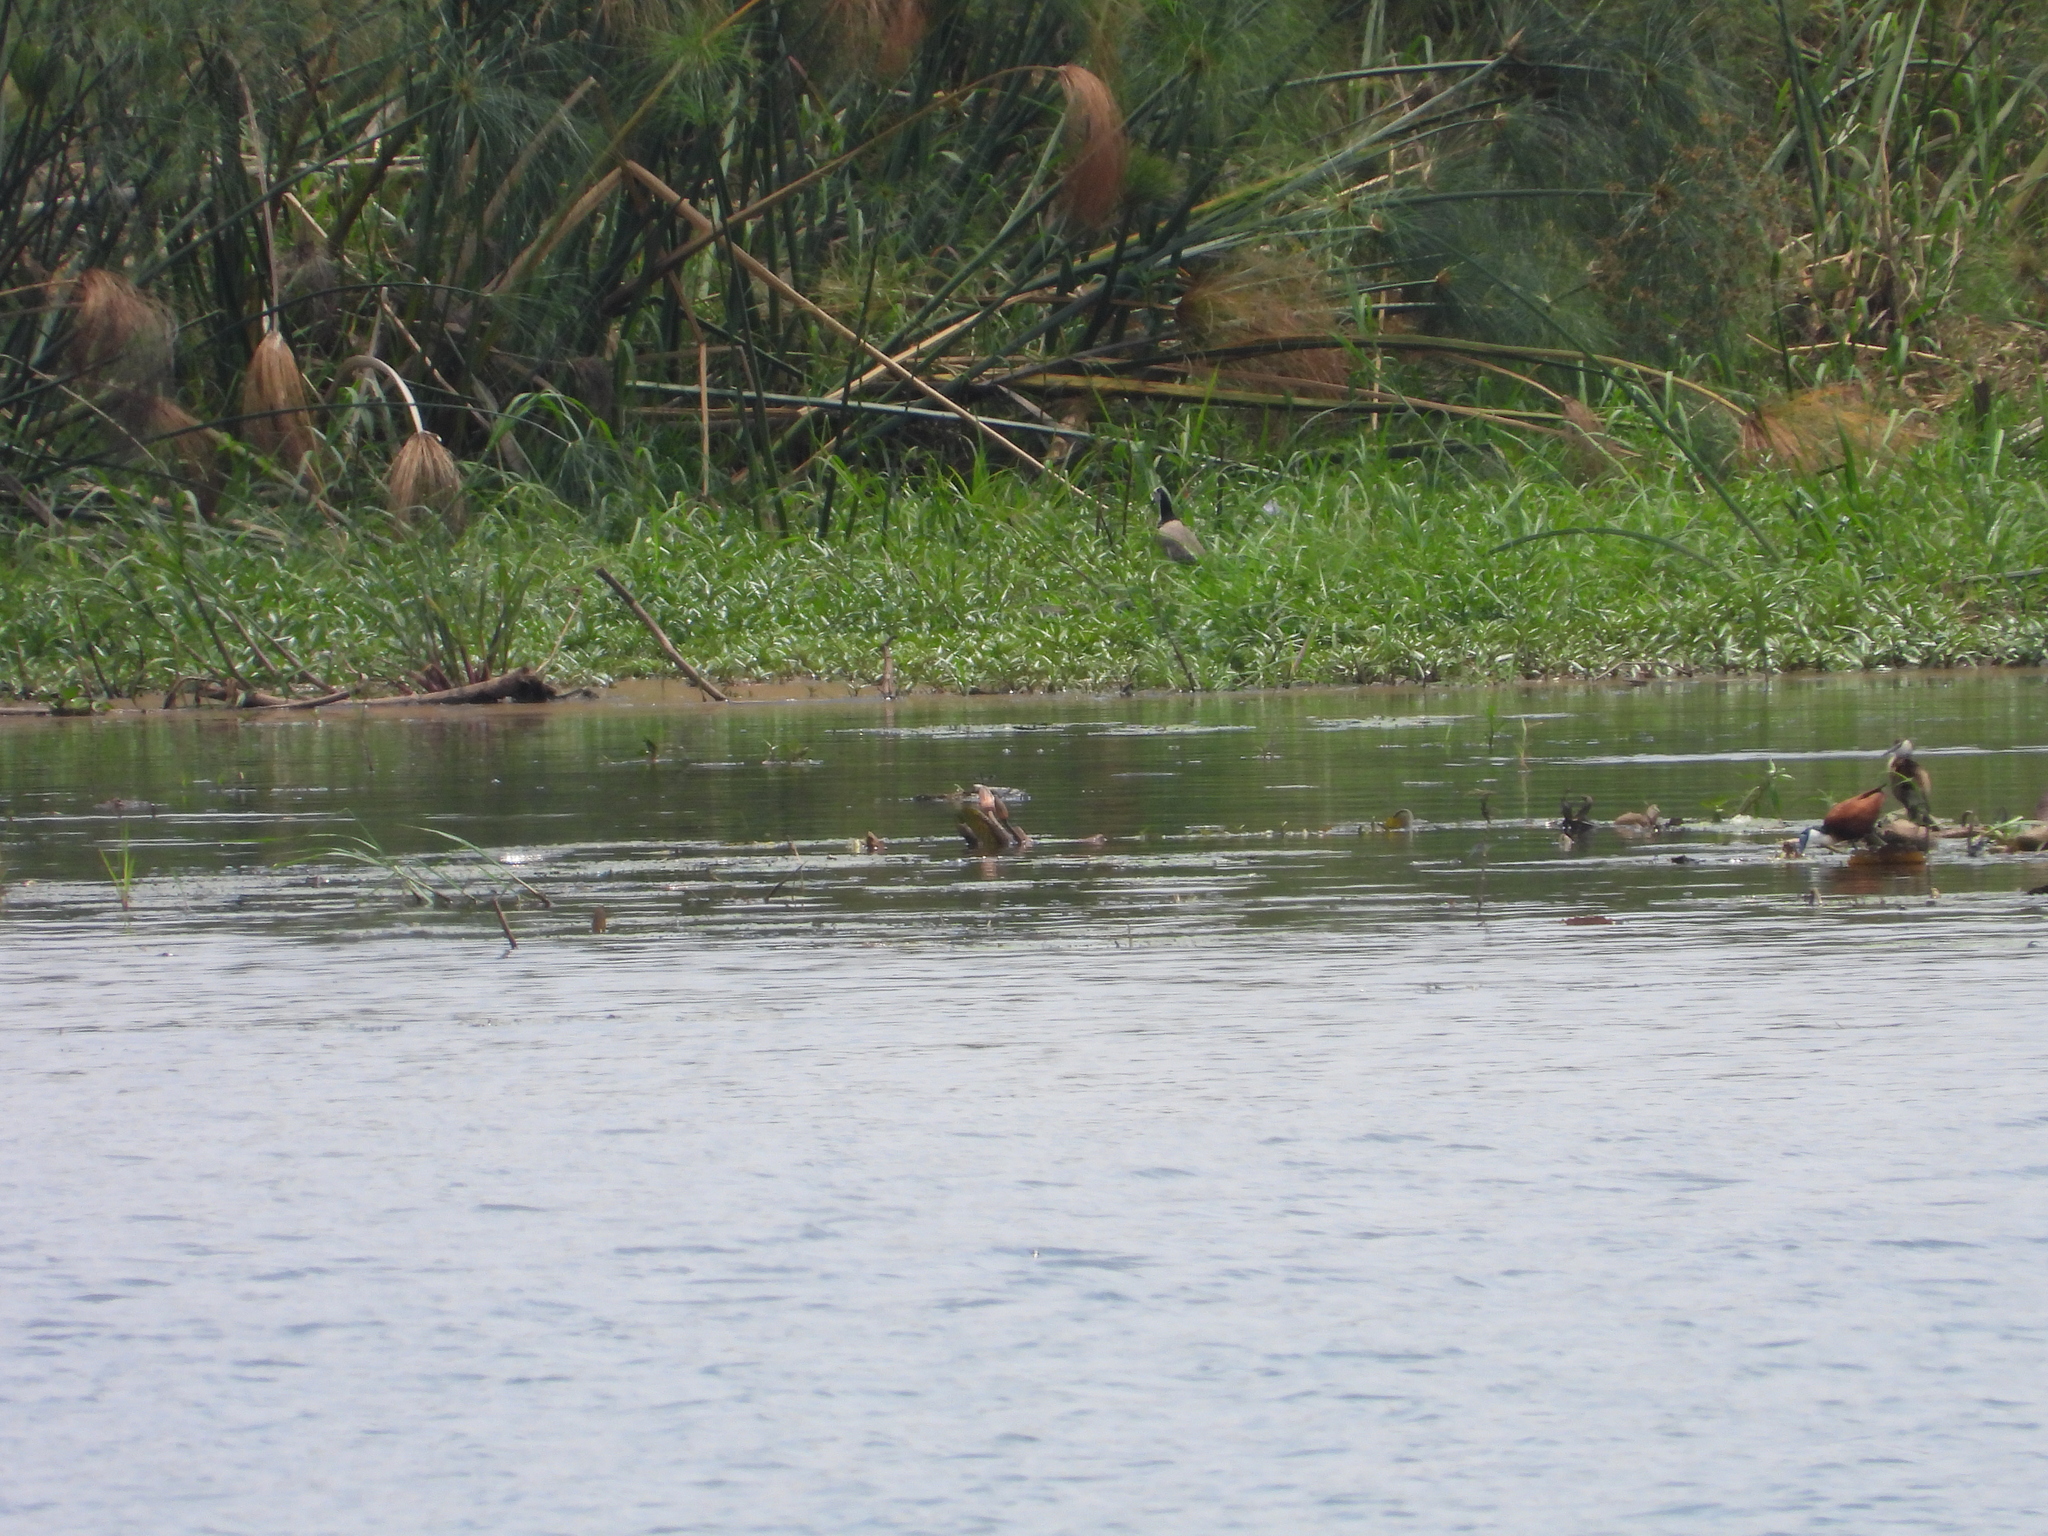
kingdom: Animalia
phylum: Chordata
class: Aves
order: Charadriiformes
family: Charadriidae
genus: Vanellus
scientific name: Vanellus crassirostris
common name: Long-toed lapwing
